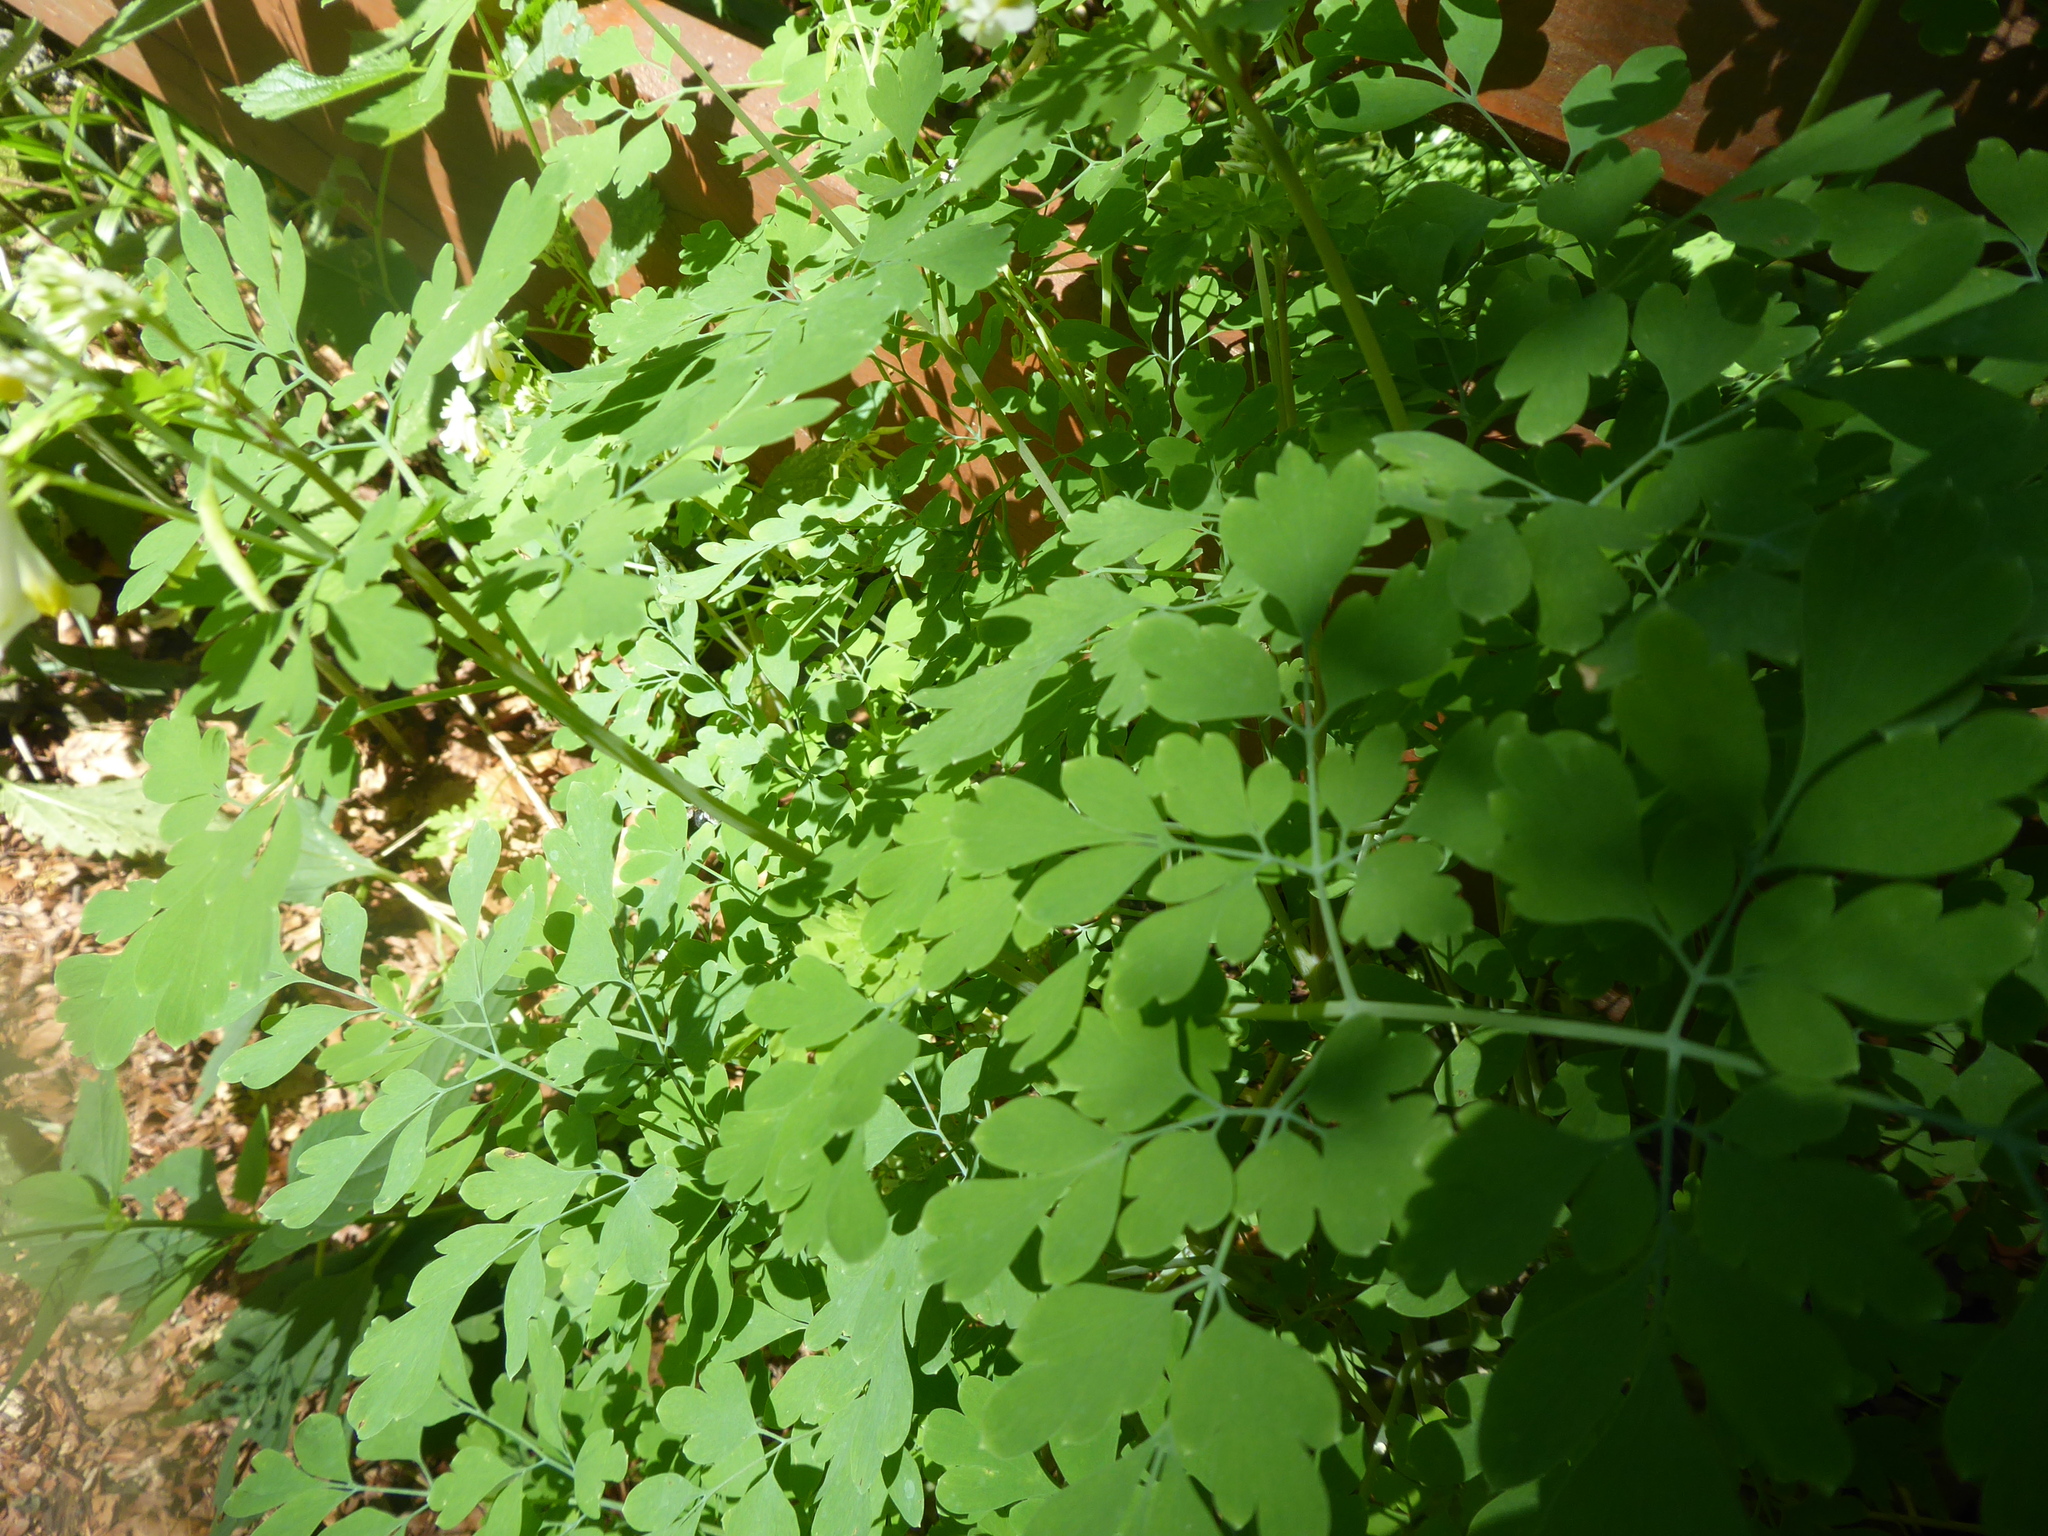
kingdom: Plantae
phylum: Tracheophyta
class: Magnoliopsida
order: Ranunculales
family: Papaveraceae
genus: Pseudofumaria
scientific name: Pseudofumaria alba
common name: Pale corydalis
